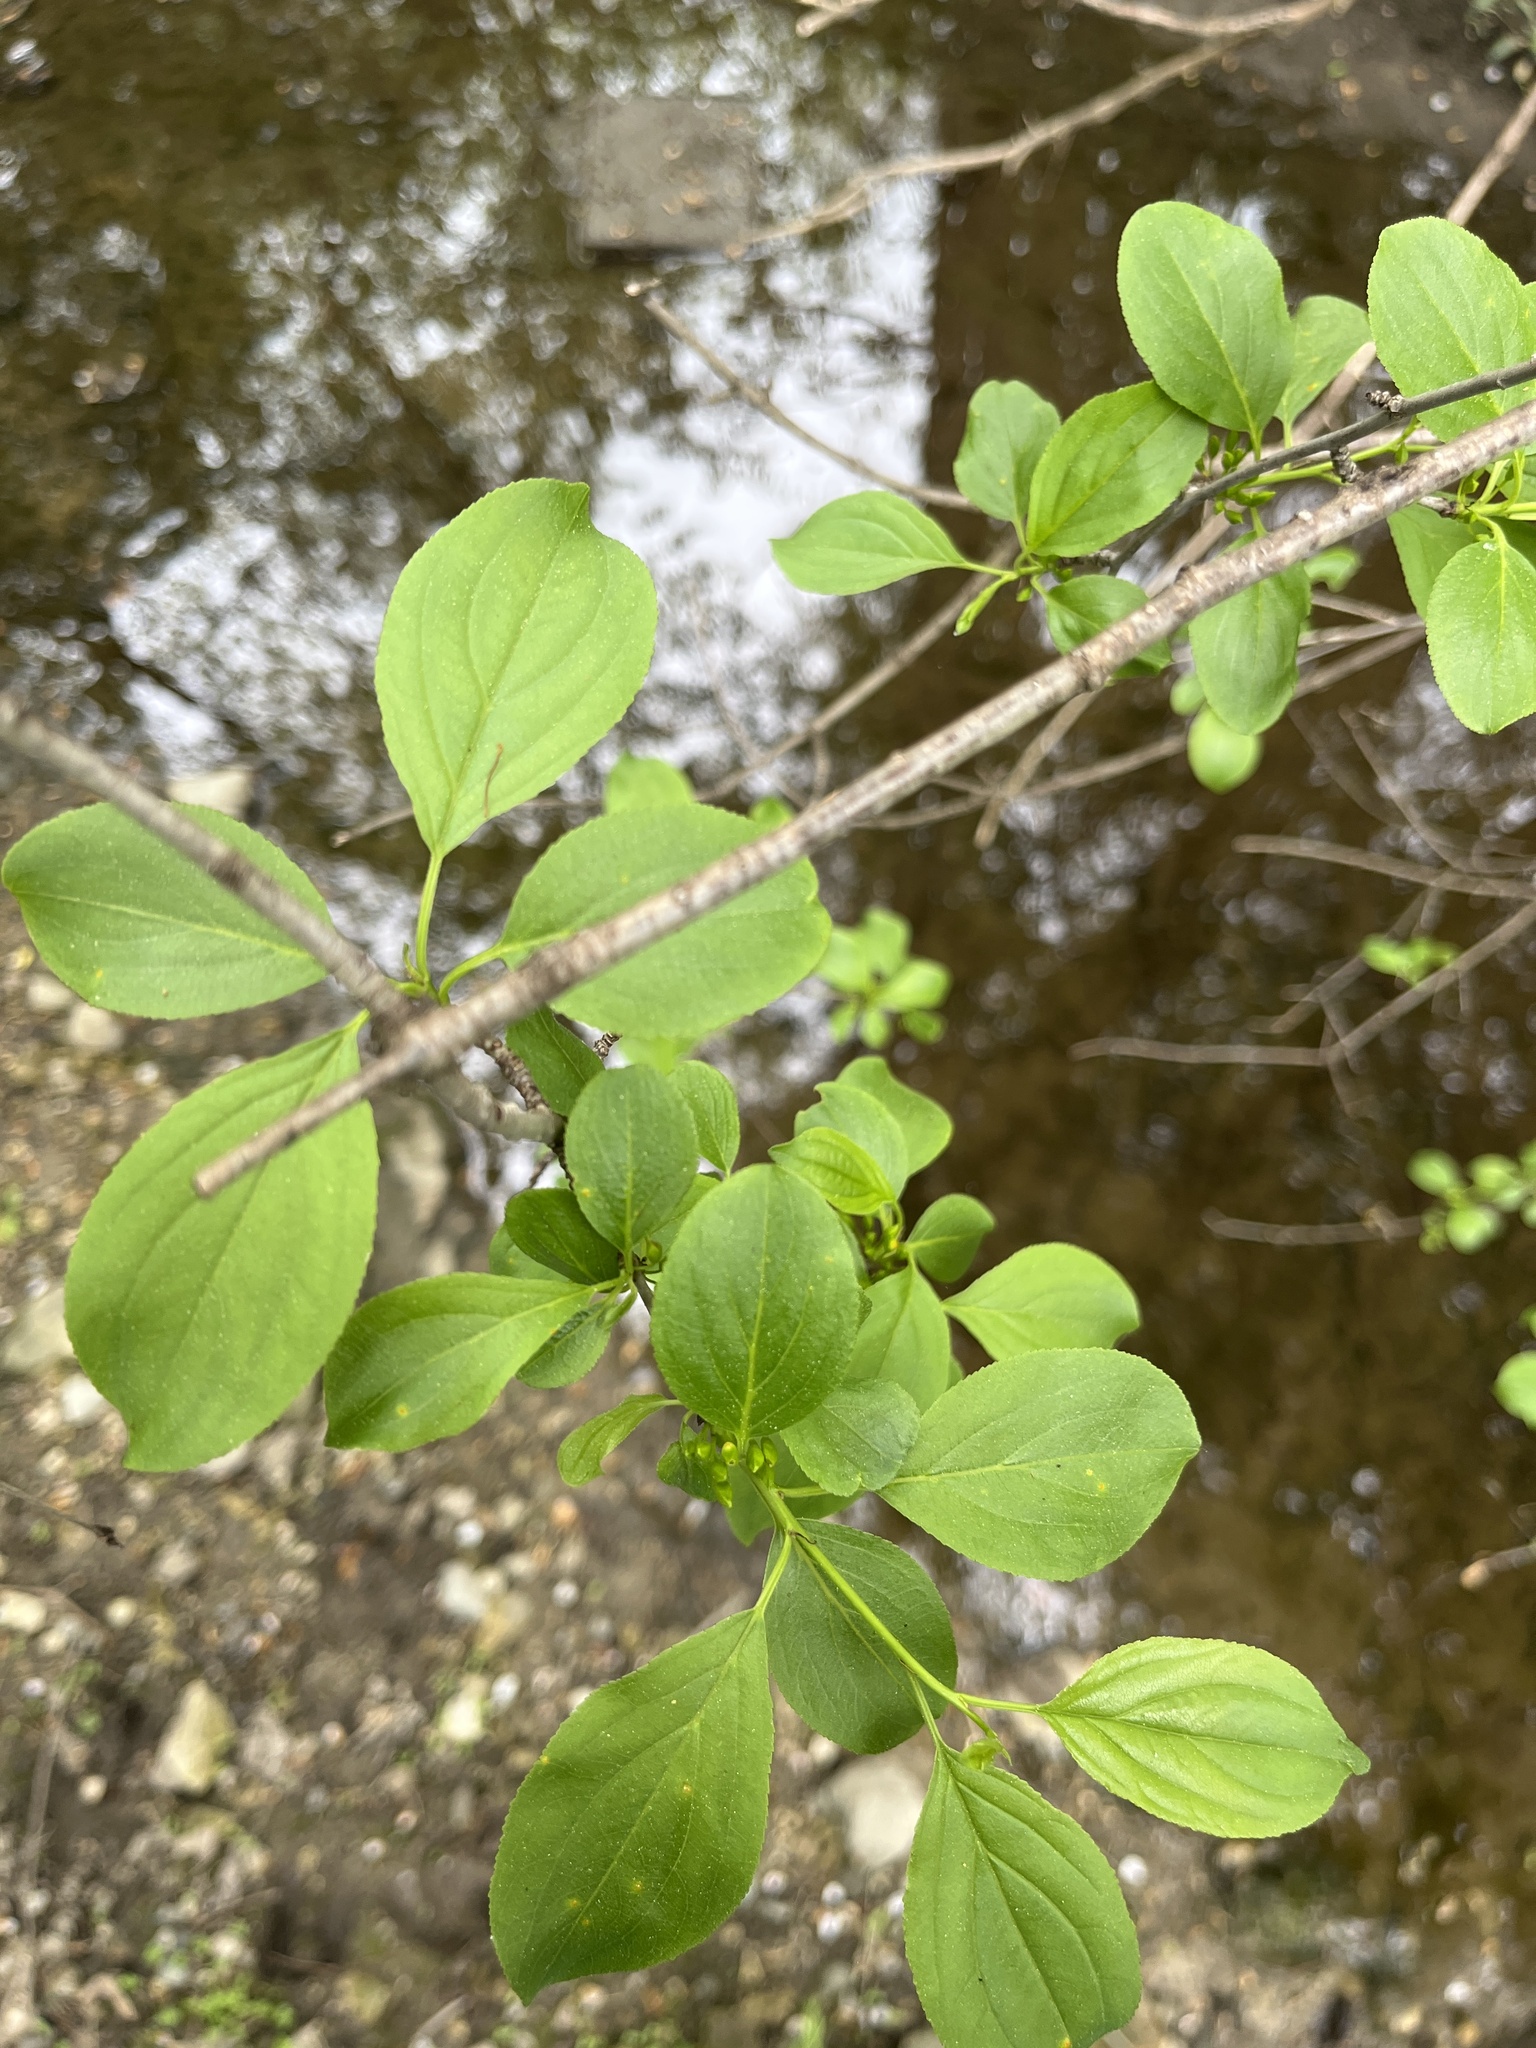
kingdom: Plantae
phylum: Tracheophyta
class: Magnoliopsida
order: Rosales
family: Rhamnaceae
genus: Rhamnus
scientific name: Rhamnus cathartica
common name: Common buckthorn
